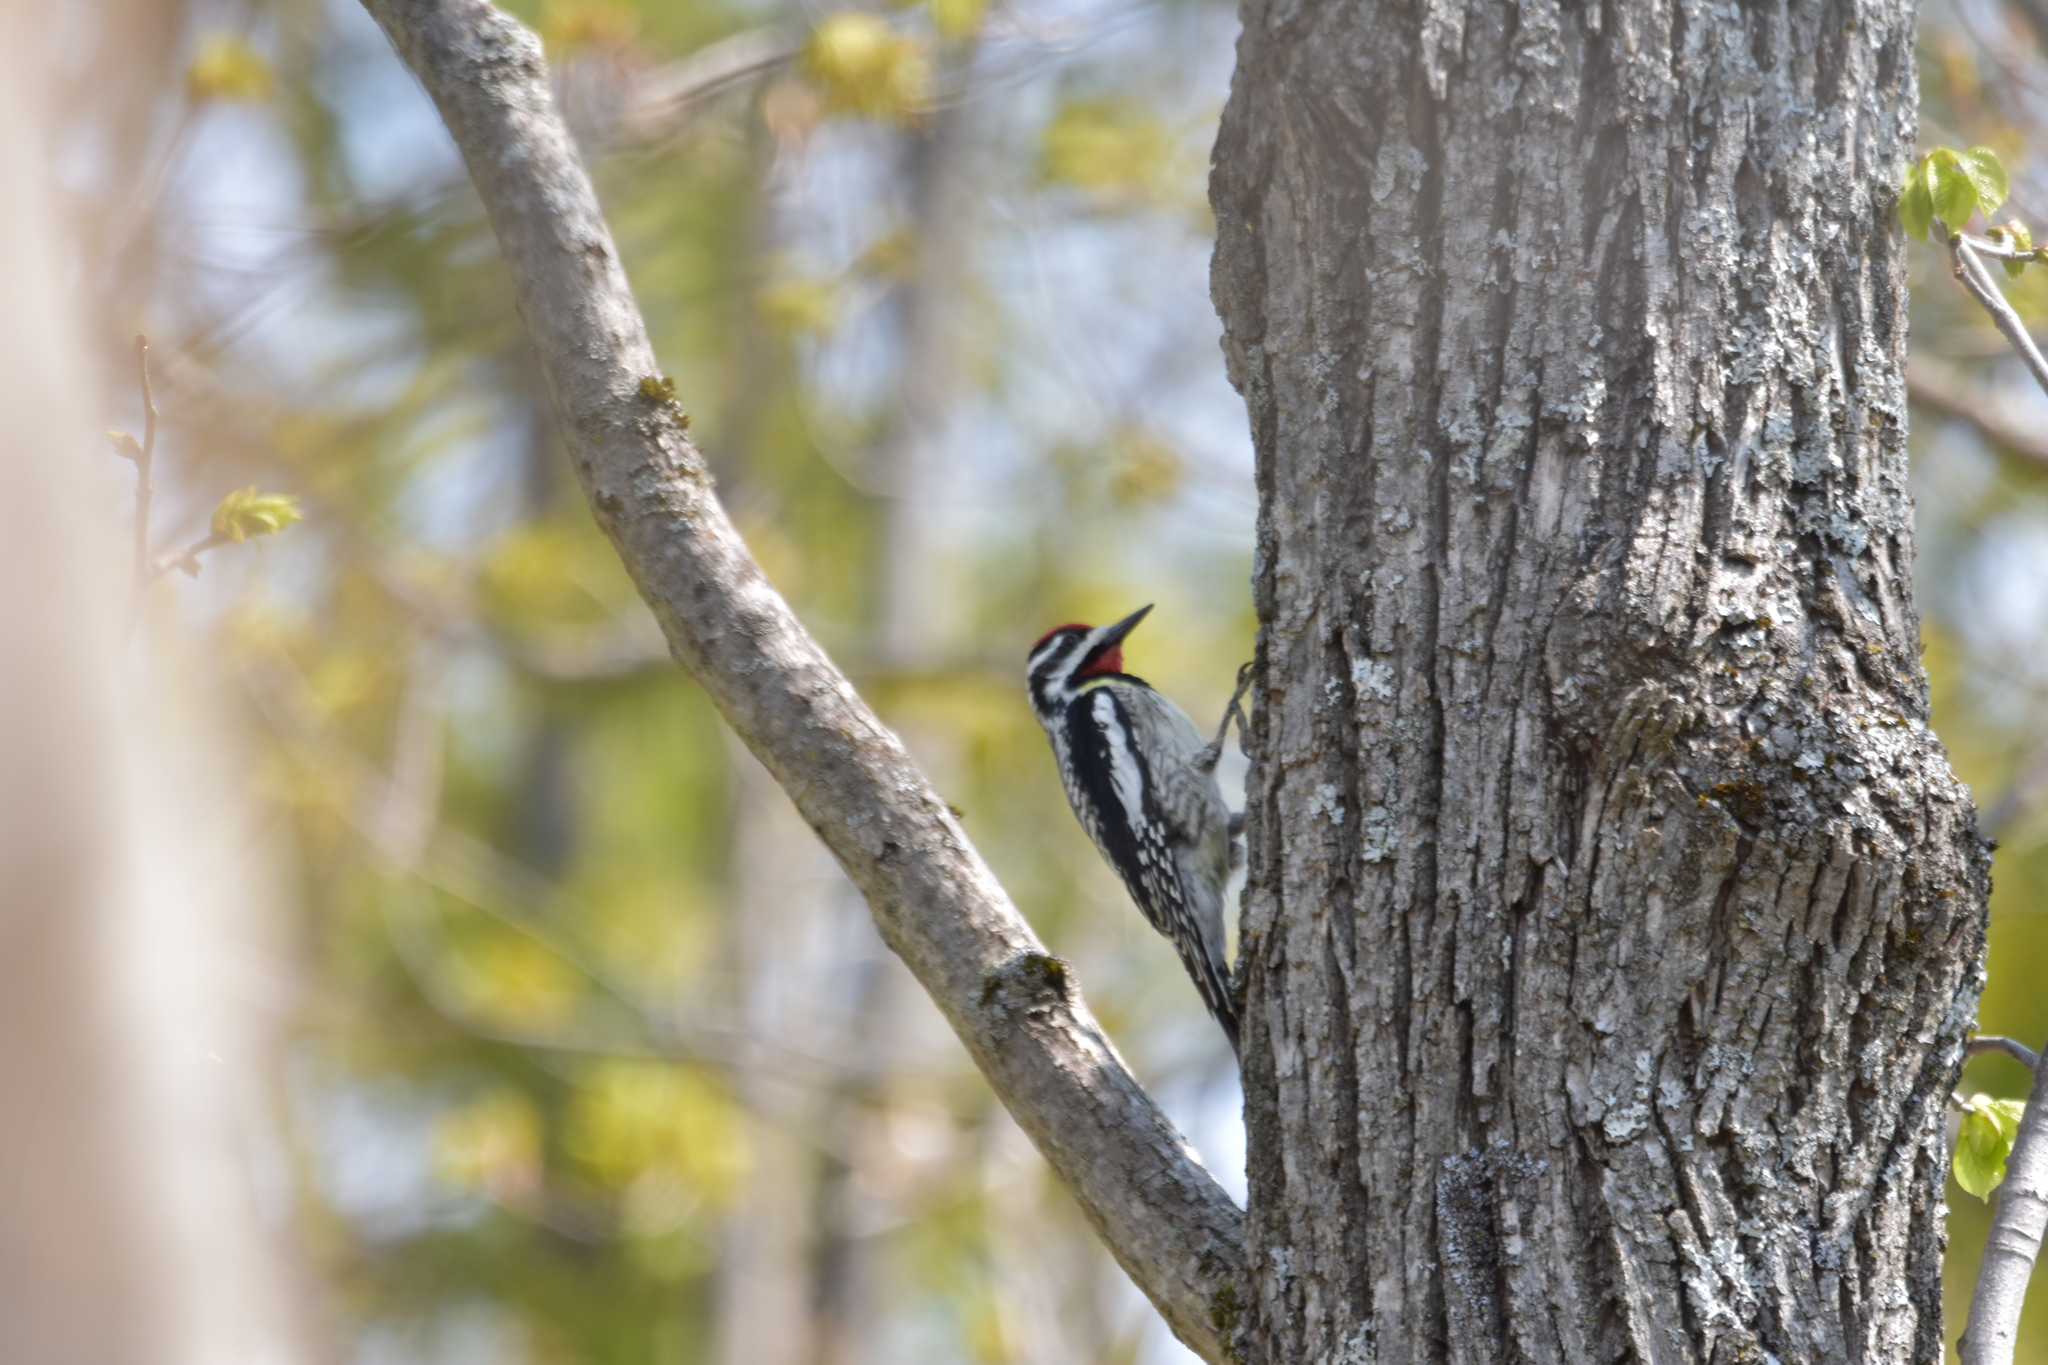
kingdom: Animalia
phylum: Chordata
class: Aves
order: Piciformes
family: Picidae
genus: Sphyrapicus
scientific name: Sphyrapicus varius
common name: Yellow-bellied sapsucker
